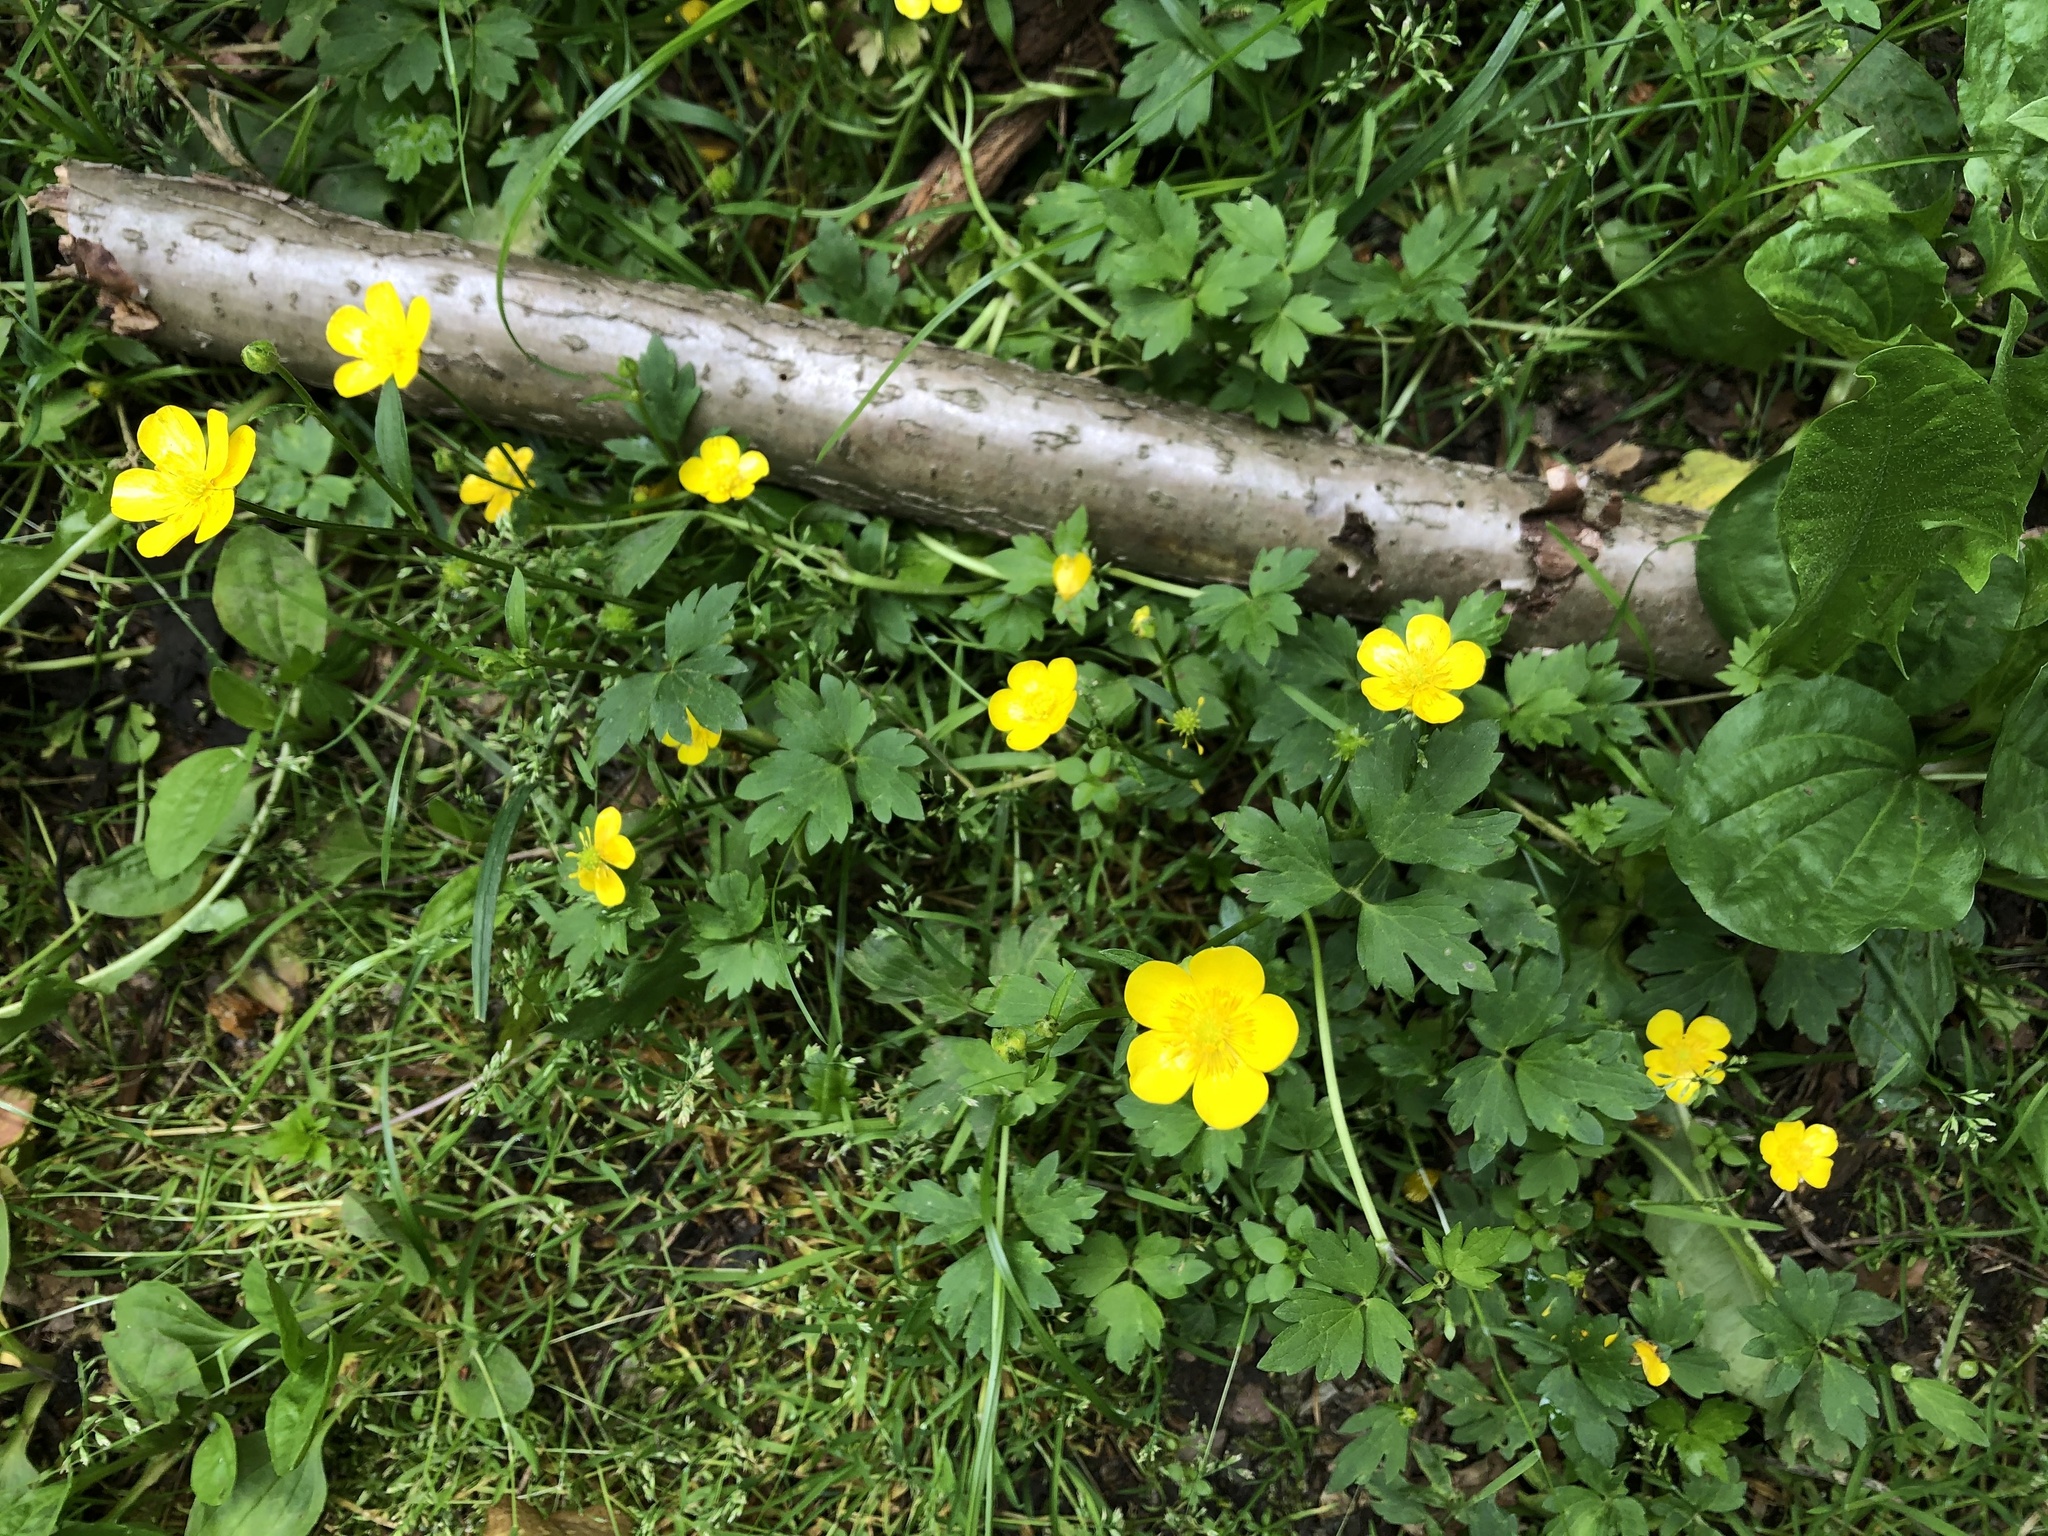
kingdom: Plantae
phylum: Tracheophyta
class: Magnoliopsida
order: Ranunculales
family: Ranunculaceae
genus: Ranunculus
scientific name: Ranunculus repens
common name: Creeping buttercup
